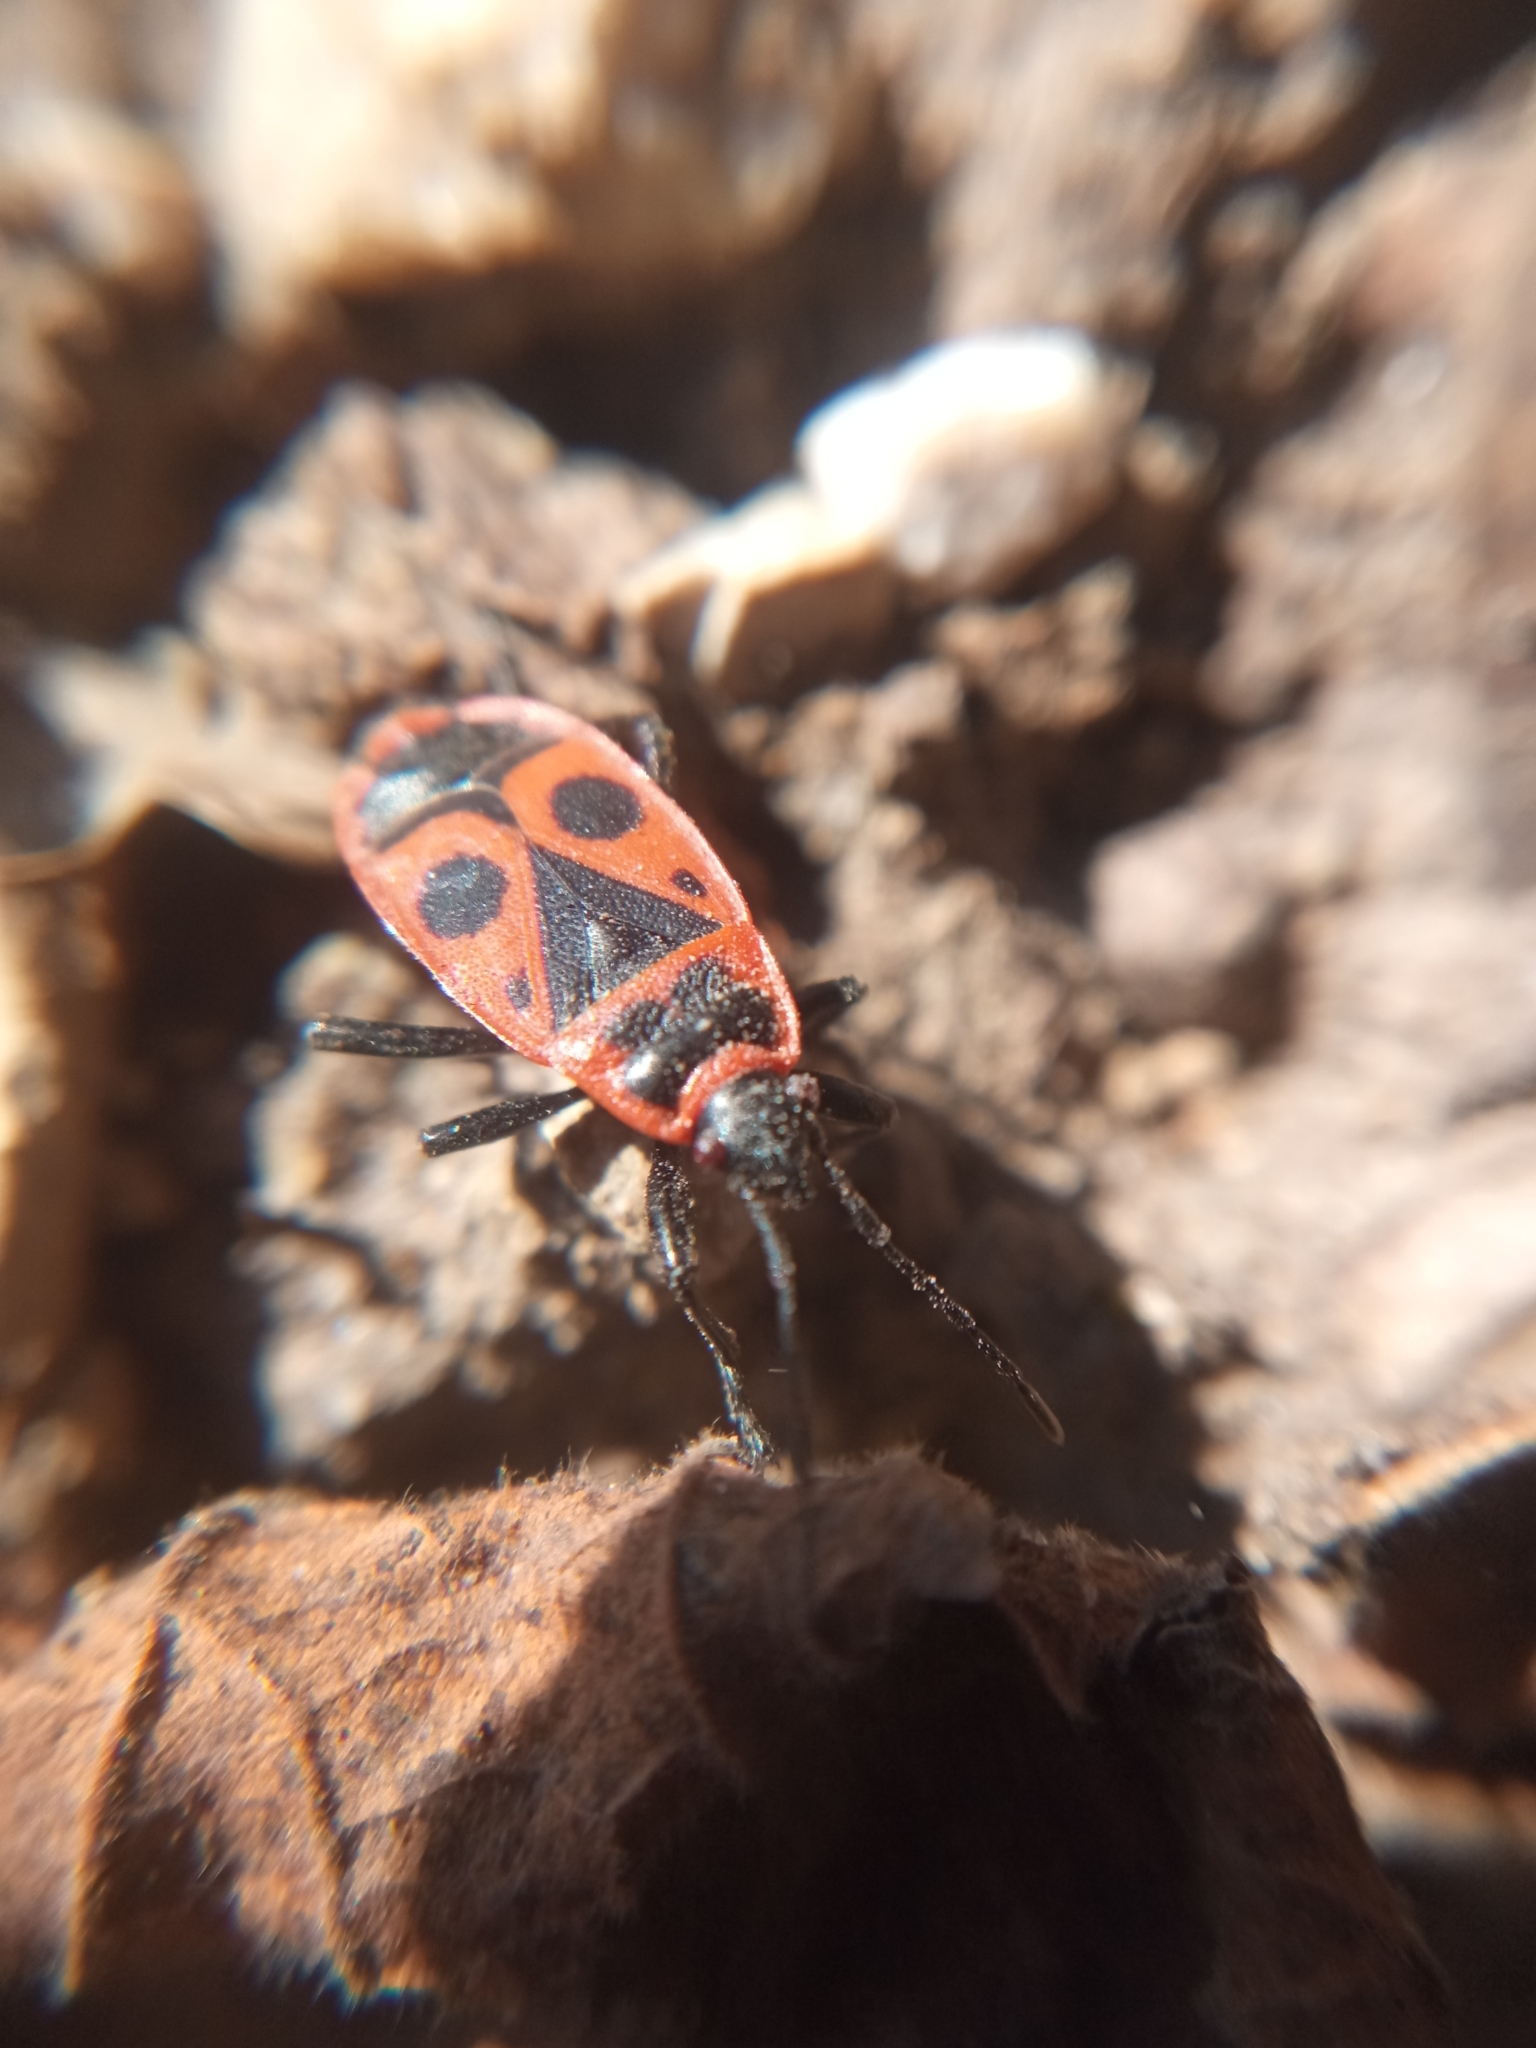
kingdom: Animalia
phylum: Arthropoda
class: Insecta
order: Hemiptera
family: Pyrrhocoridae
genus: Pyrrhocoris
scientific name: Pyrrhocoris apterus
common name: Firebug
